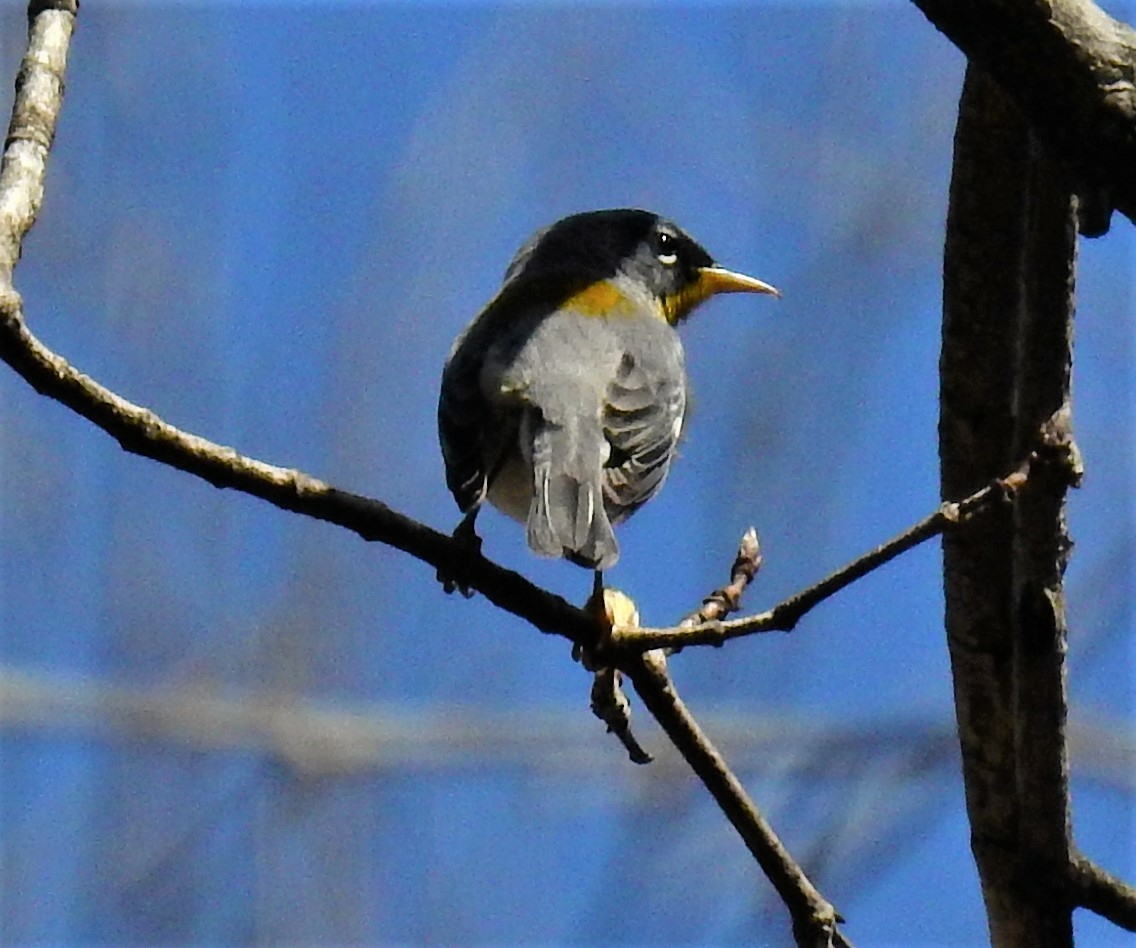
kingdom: Animalia
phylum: Chordata
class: Aves
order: Passeriformes
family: Parulidae
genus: Setophaga
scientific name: Setophaga americana
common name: Northern parula
